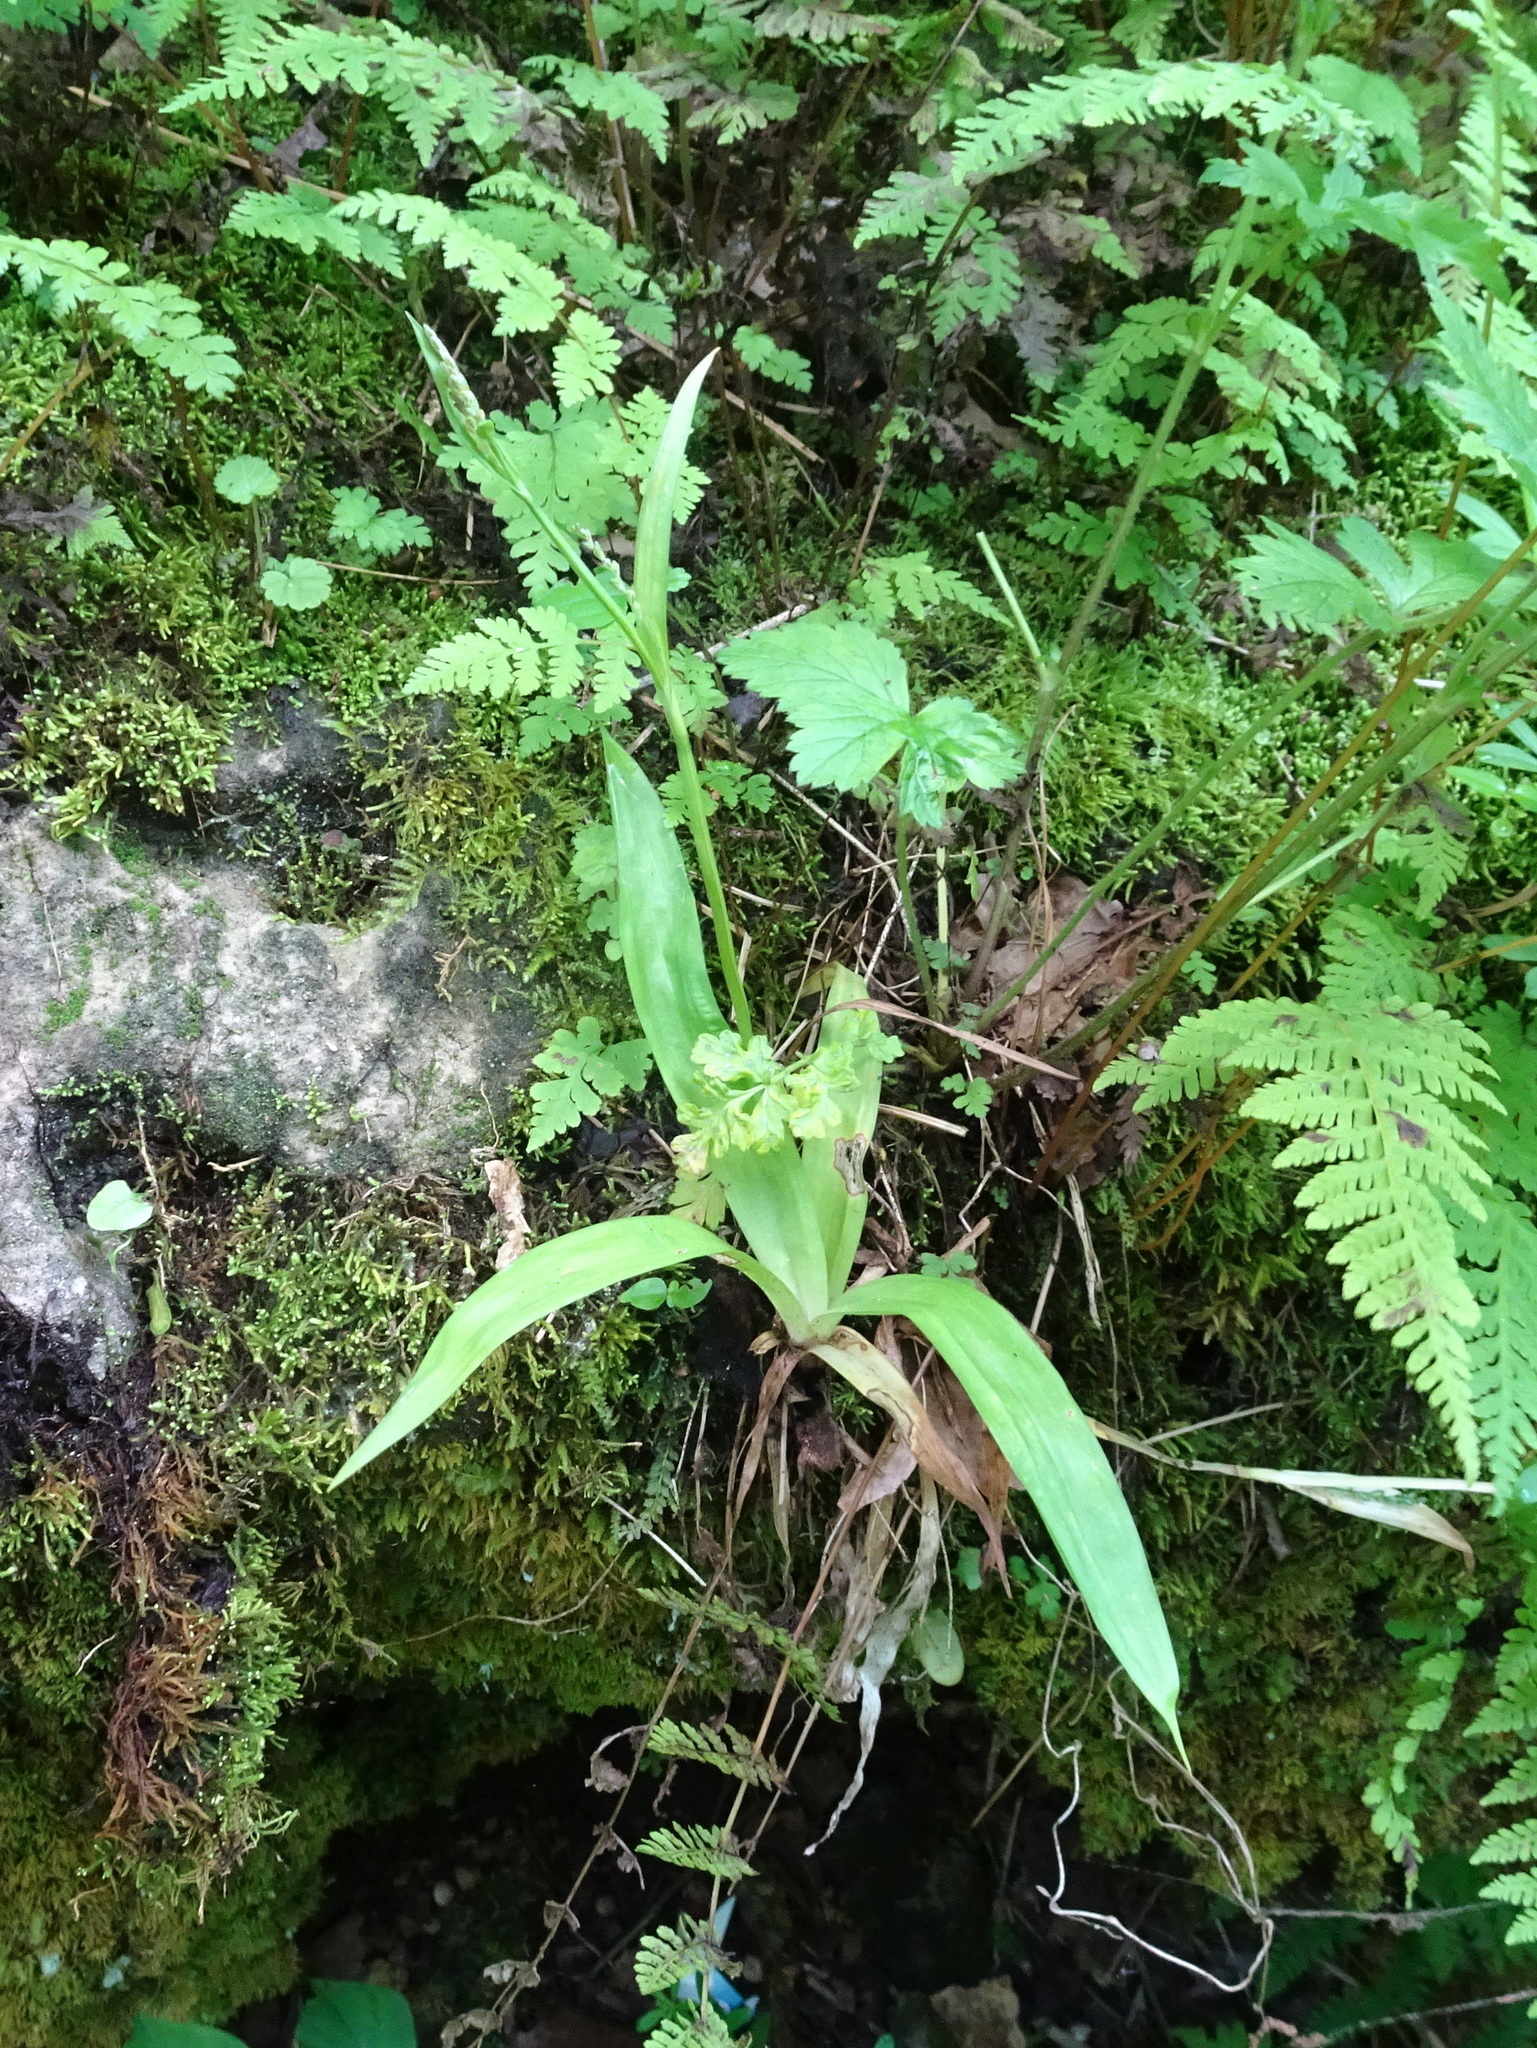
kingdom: Plantae
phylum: Tracheophyta
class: Liliopsida
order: Poales
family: Cyperaceae
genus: Carex
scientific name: Carex albursina
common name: Blunt-scale wood sedge
